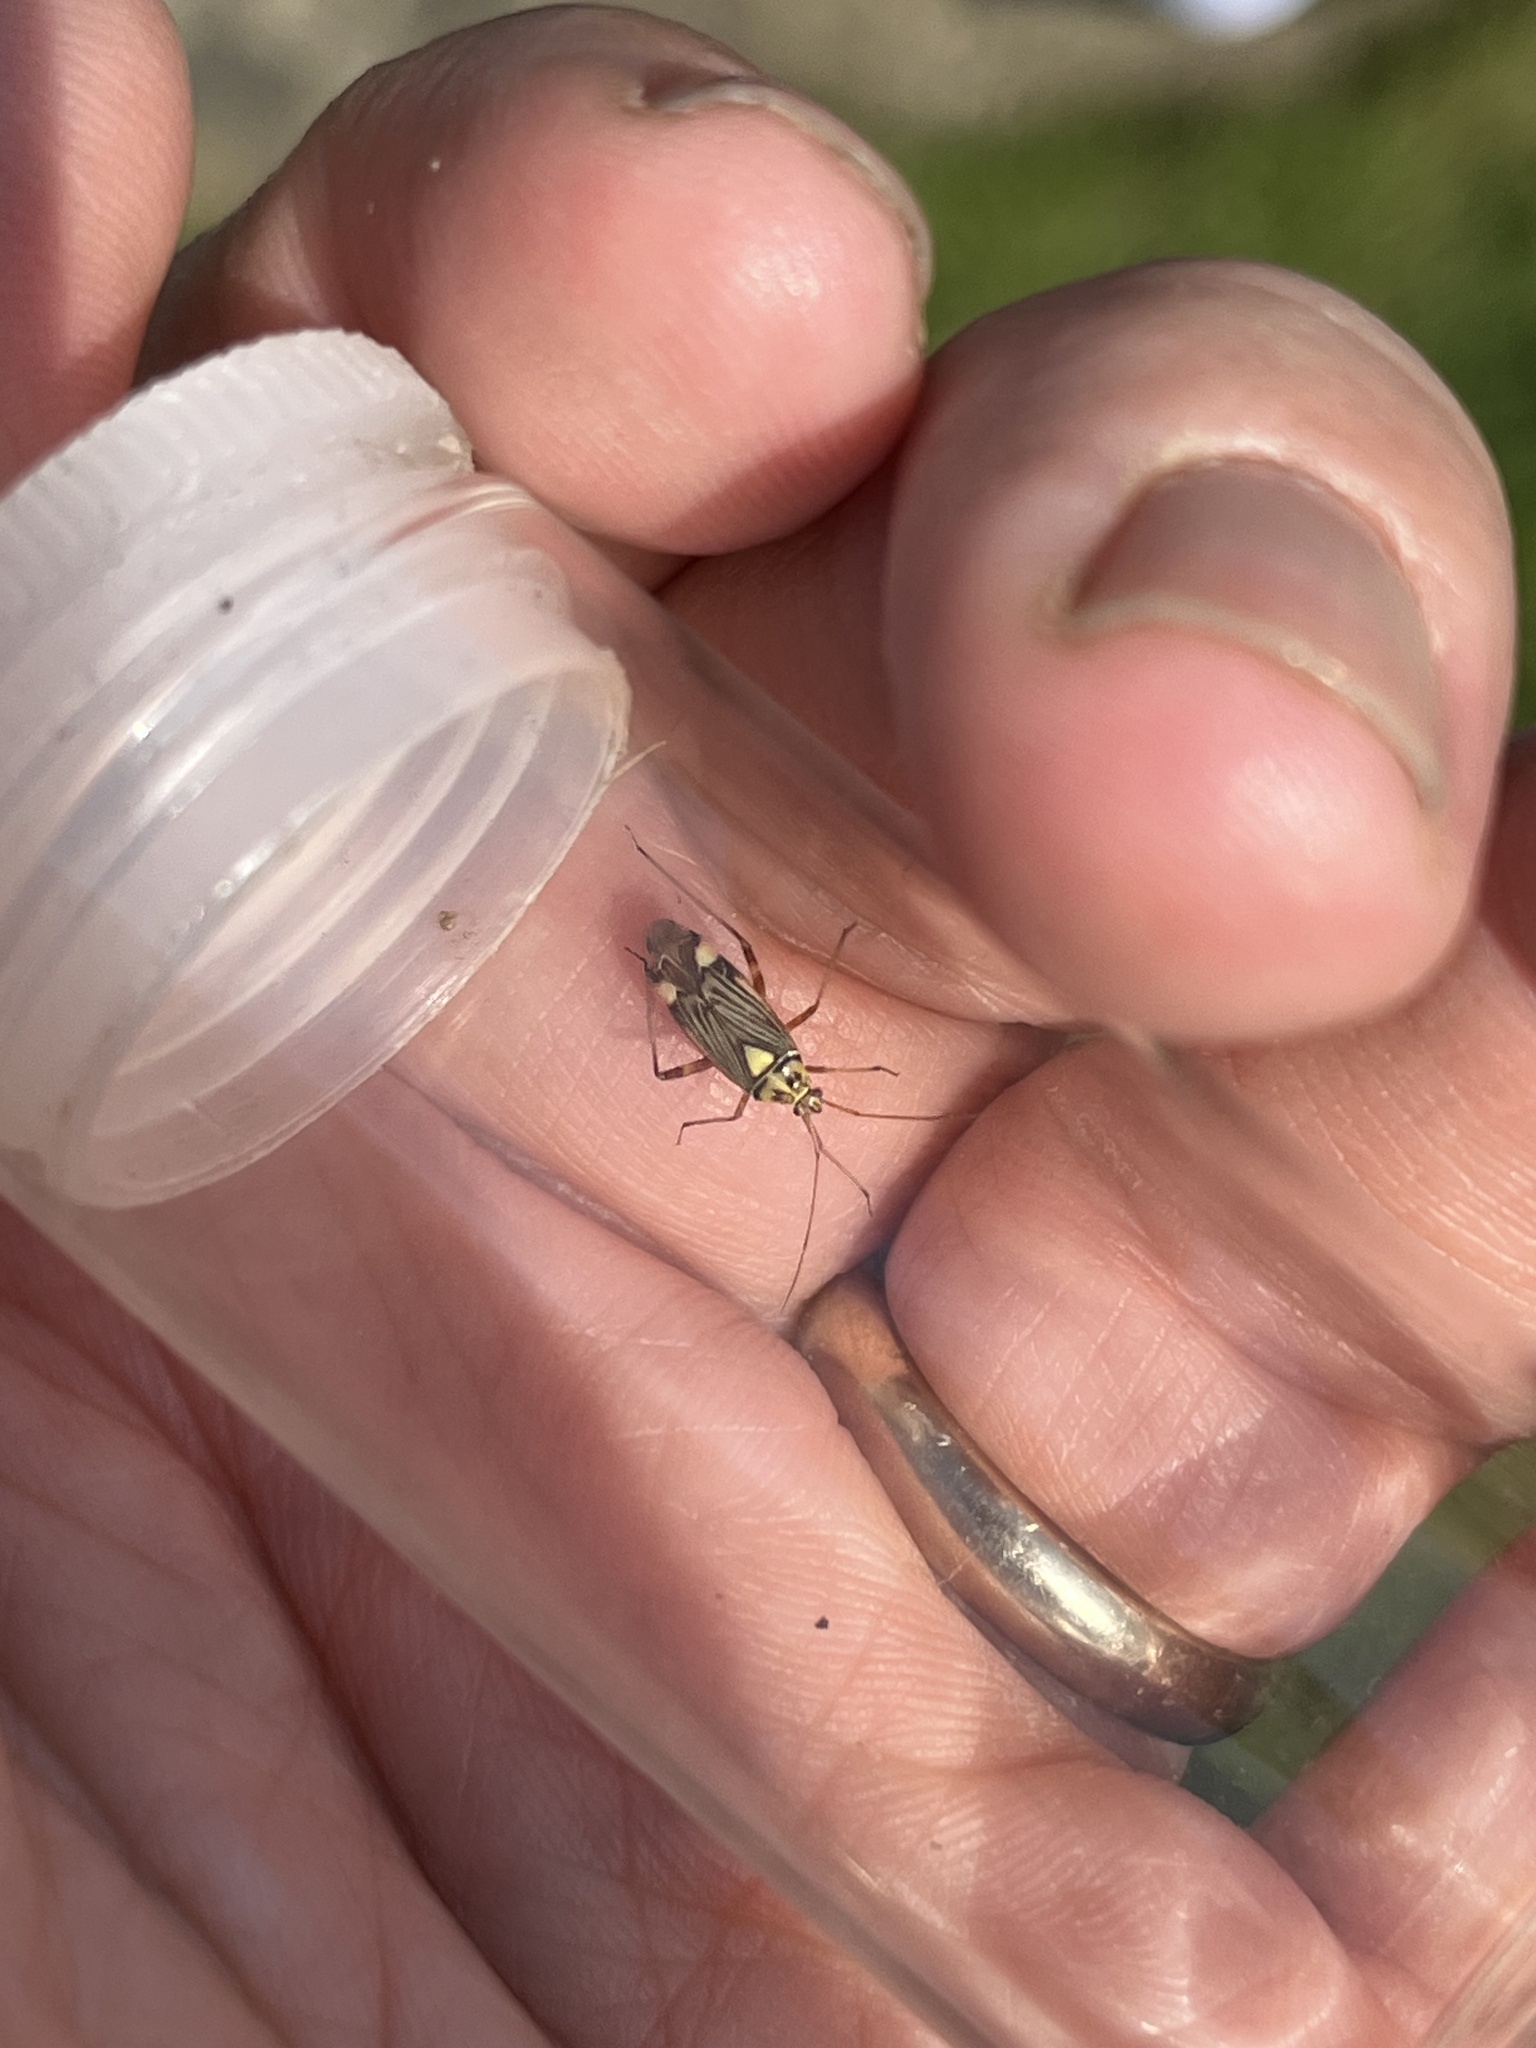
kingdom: Animalia
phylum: Arthropoda
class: Insecta
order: Hemiptera
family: Miridae
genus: Rhabdomiris
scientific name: Rhabdomiris striatellus
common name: Plant bug
